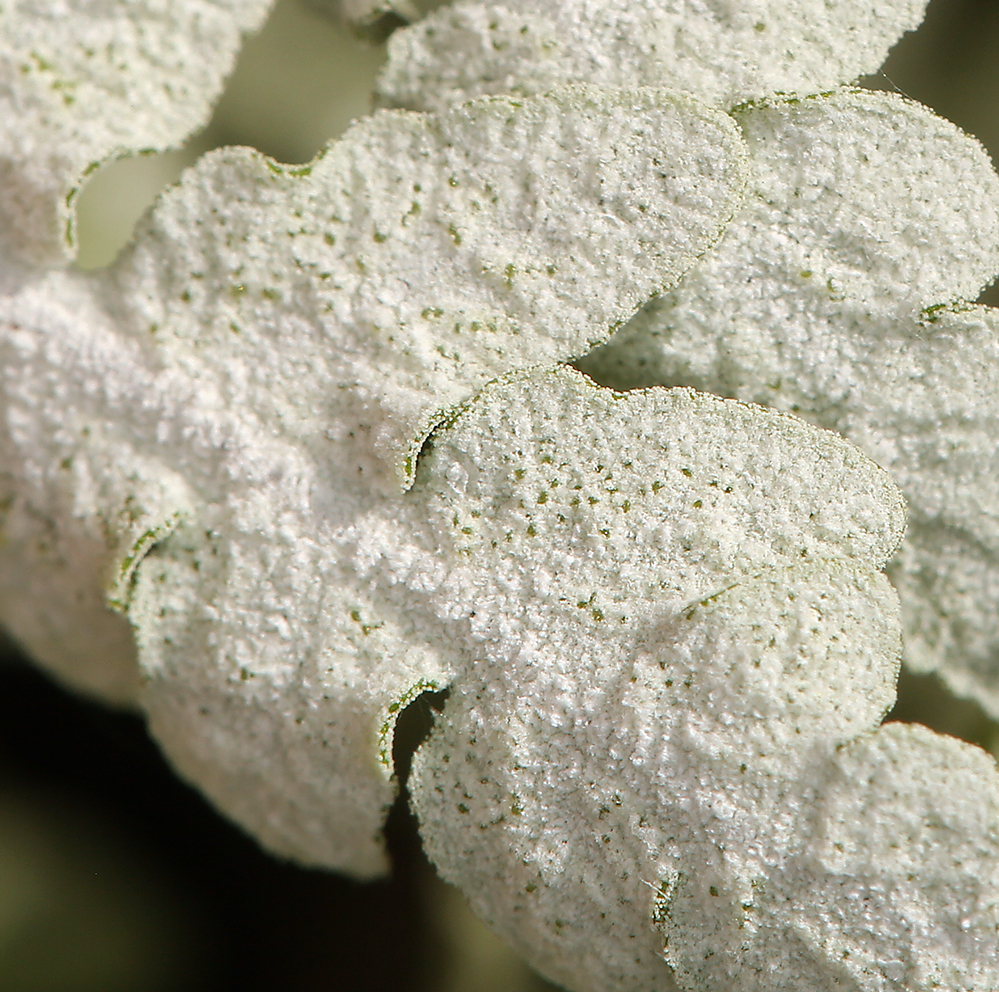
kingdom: Plantae
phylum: Tracheophyta
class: Polypodiopsida
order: Polypodiales
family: Pteridaceae
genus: Pentagramma
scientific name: Pentagramma pallida
